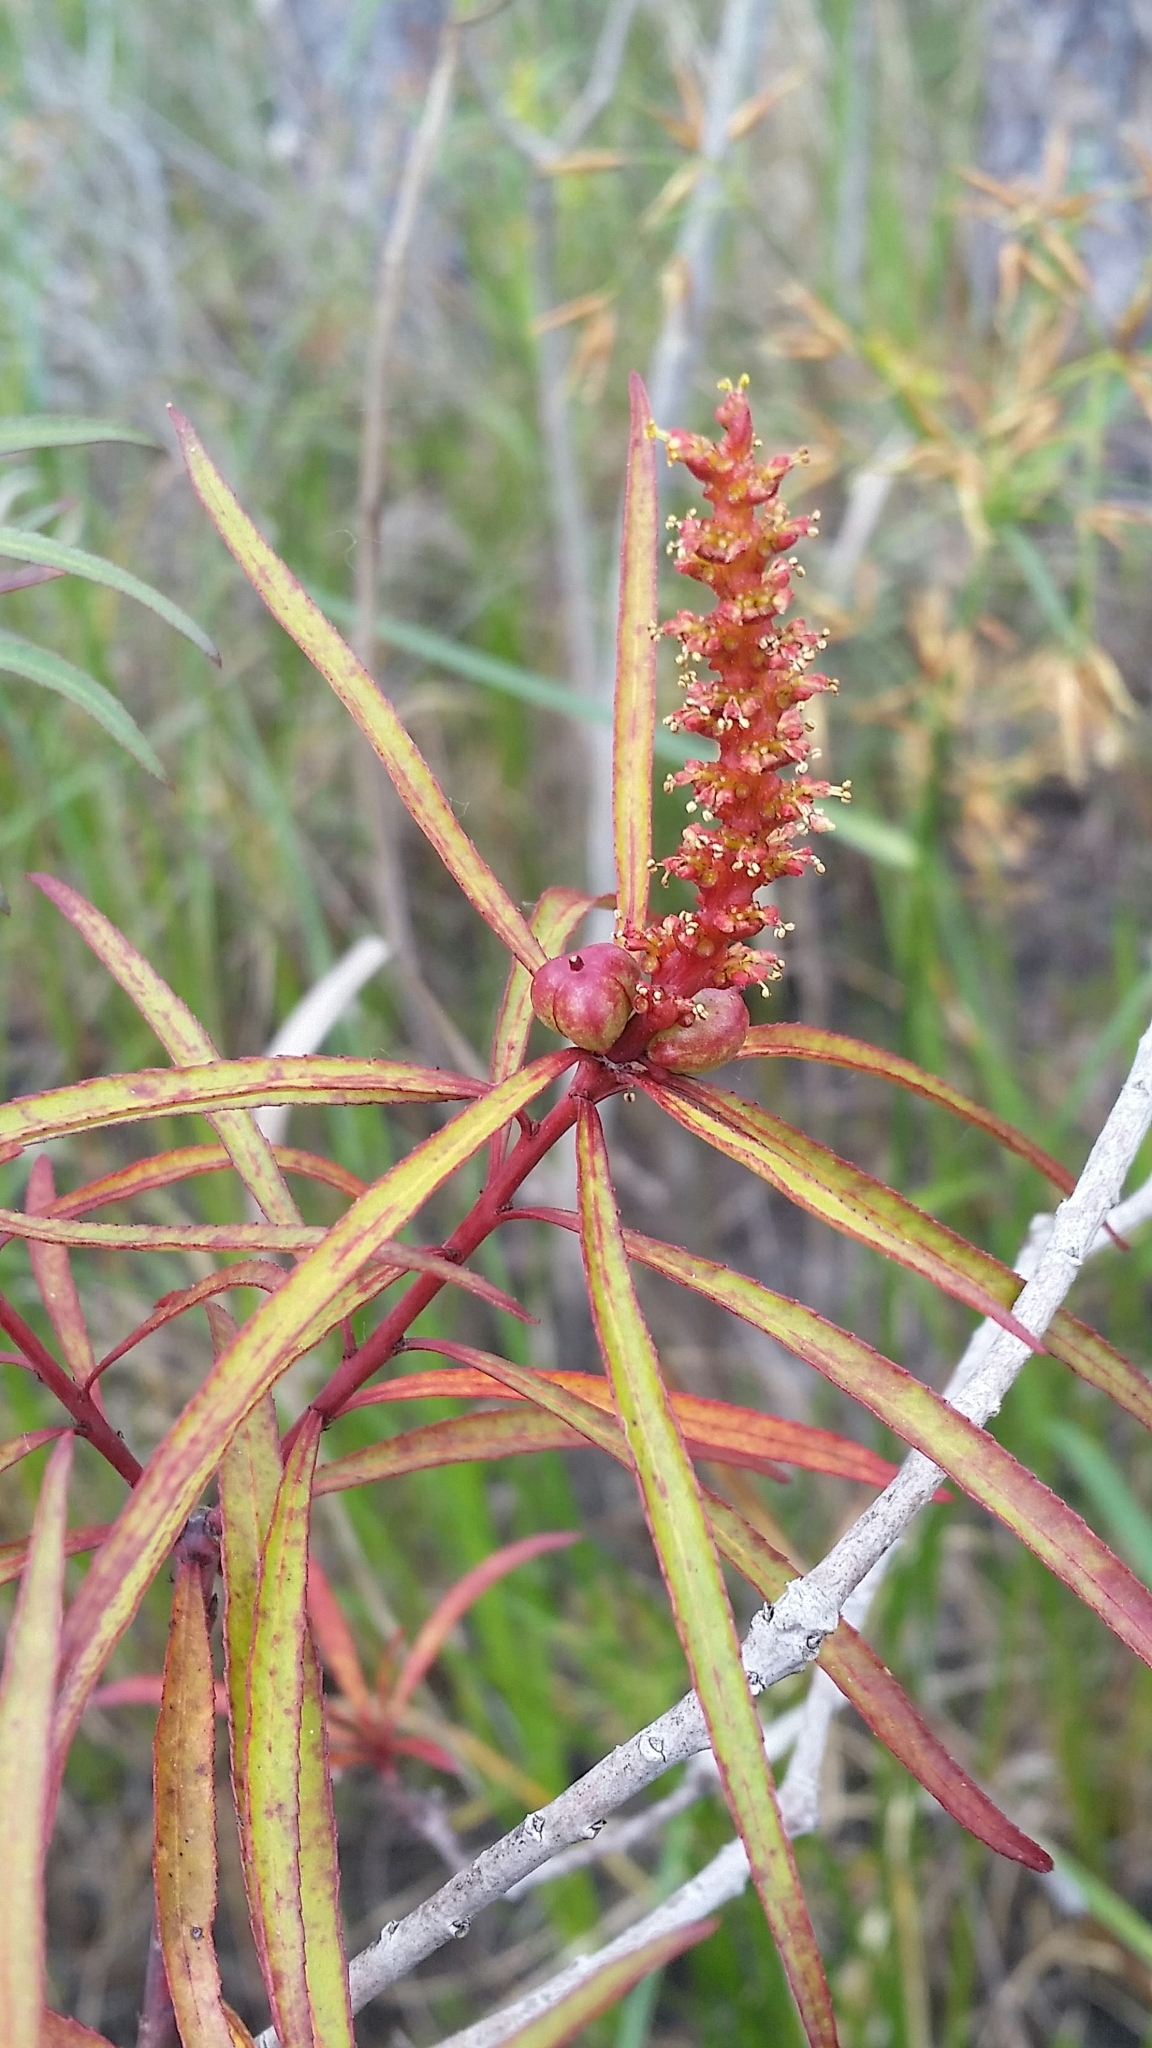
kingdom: Plantae
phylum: Tracheophyta
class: Magnoliopsida
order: Malpighiales
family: Euphorbiaceae
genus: Stillingia
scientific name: Stillingia aquatica
